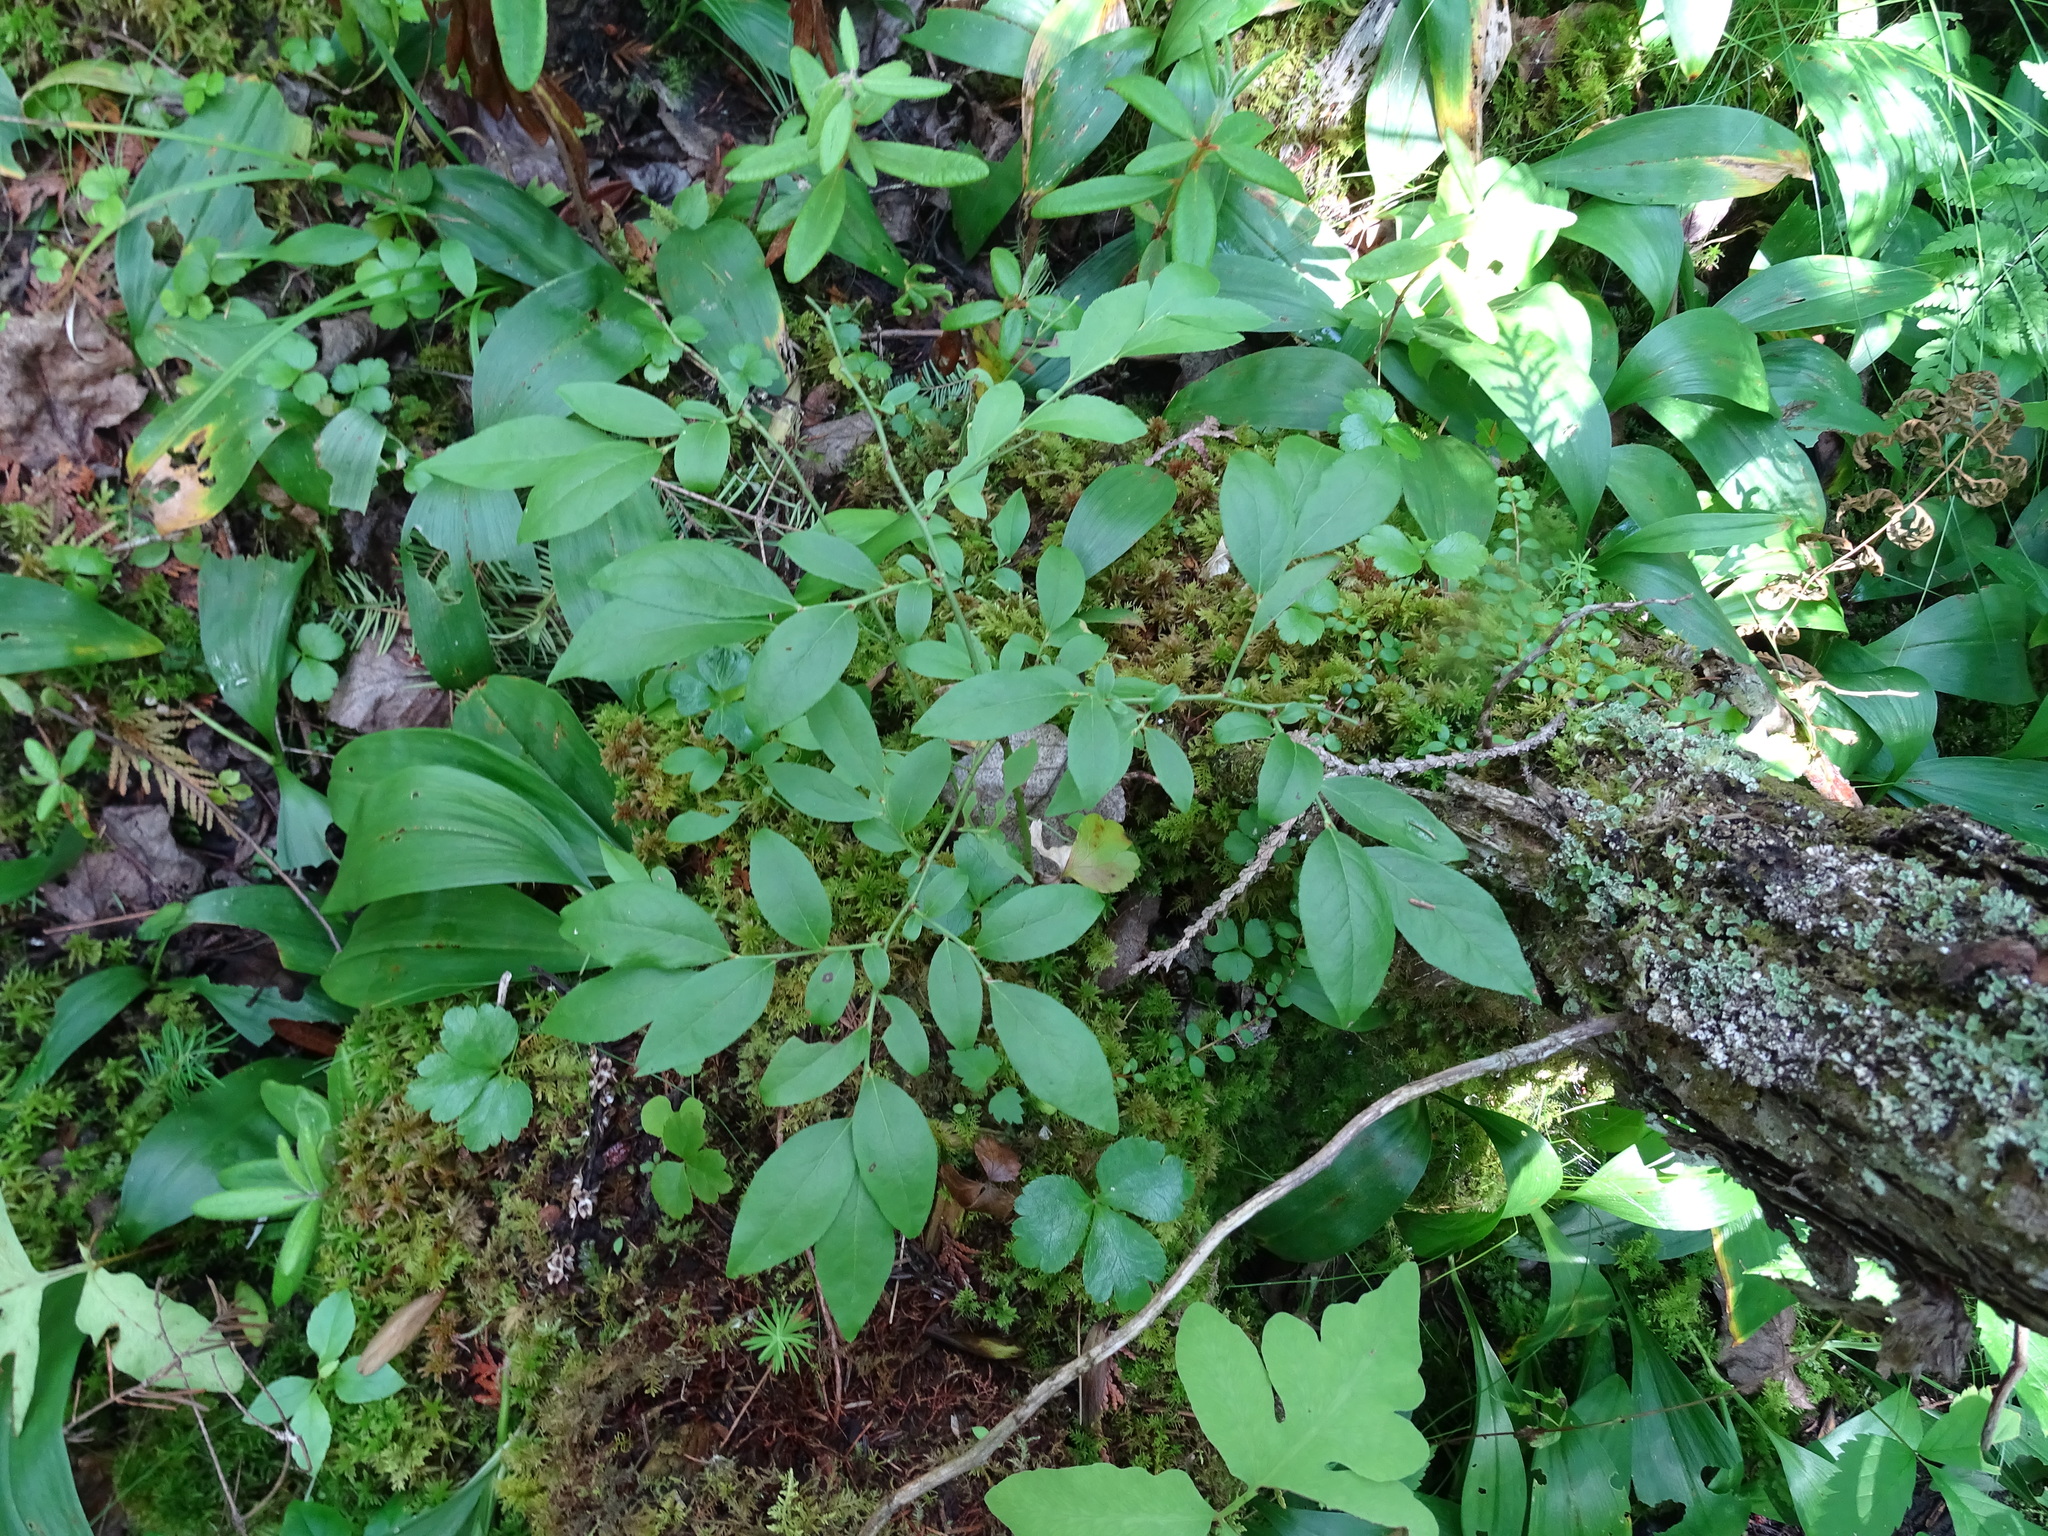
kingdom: Plantae
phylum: Tracheophyta
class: Magnoliopsida
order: Ericales
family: Ericaceae
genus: Vaccinium
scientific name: Vaccinium angustifolium
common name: Early lowbush blueberry
